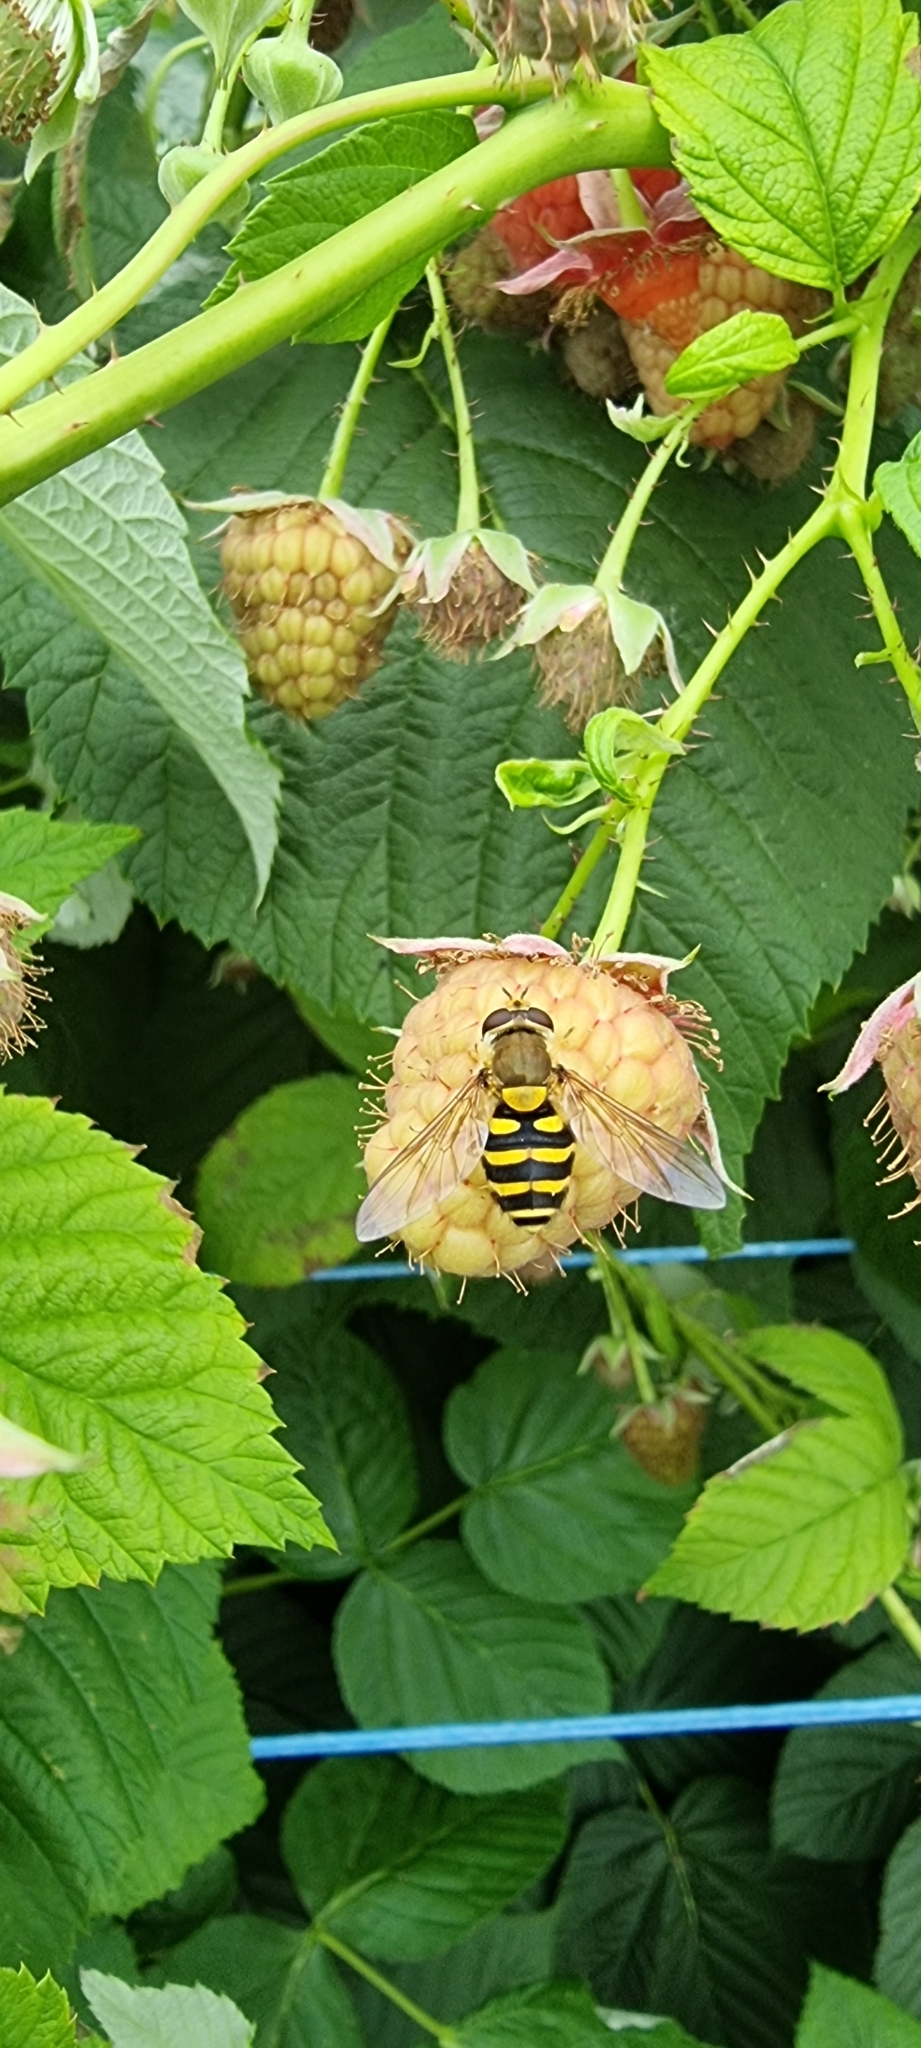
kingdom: Animalia
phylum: Arthropoda
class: Insecta
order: Diptera
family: Syrphidae
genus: Syrphus
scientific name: Syrphus
